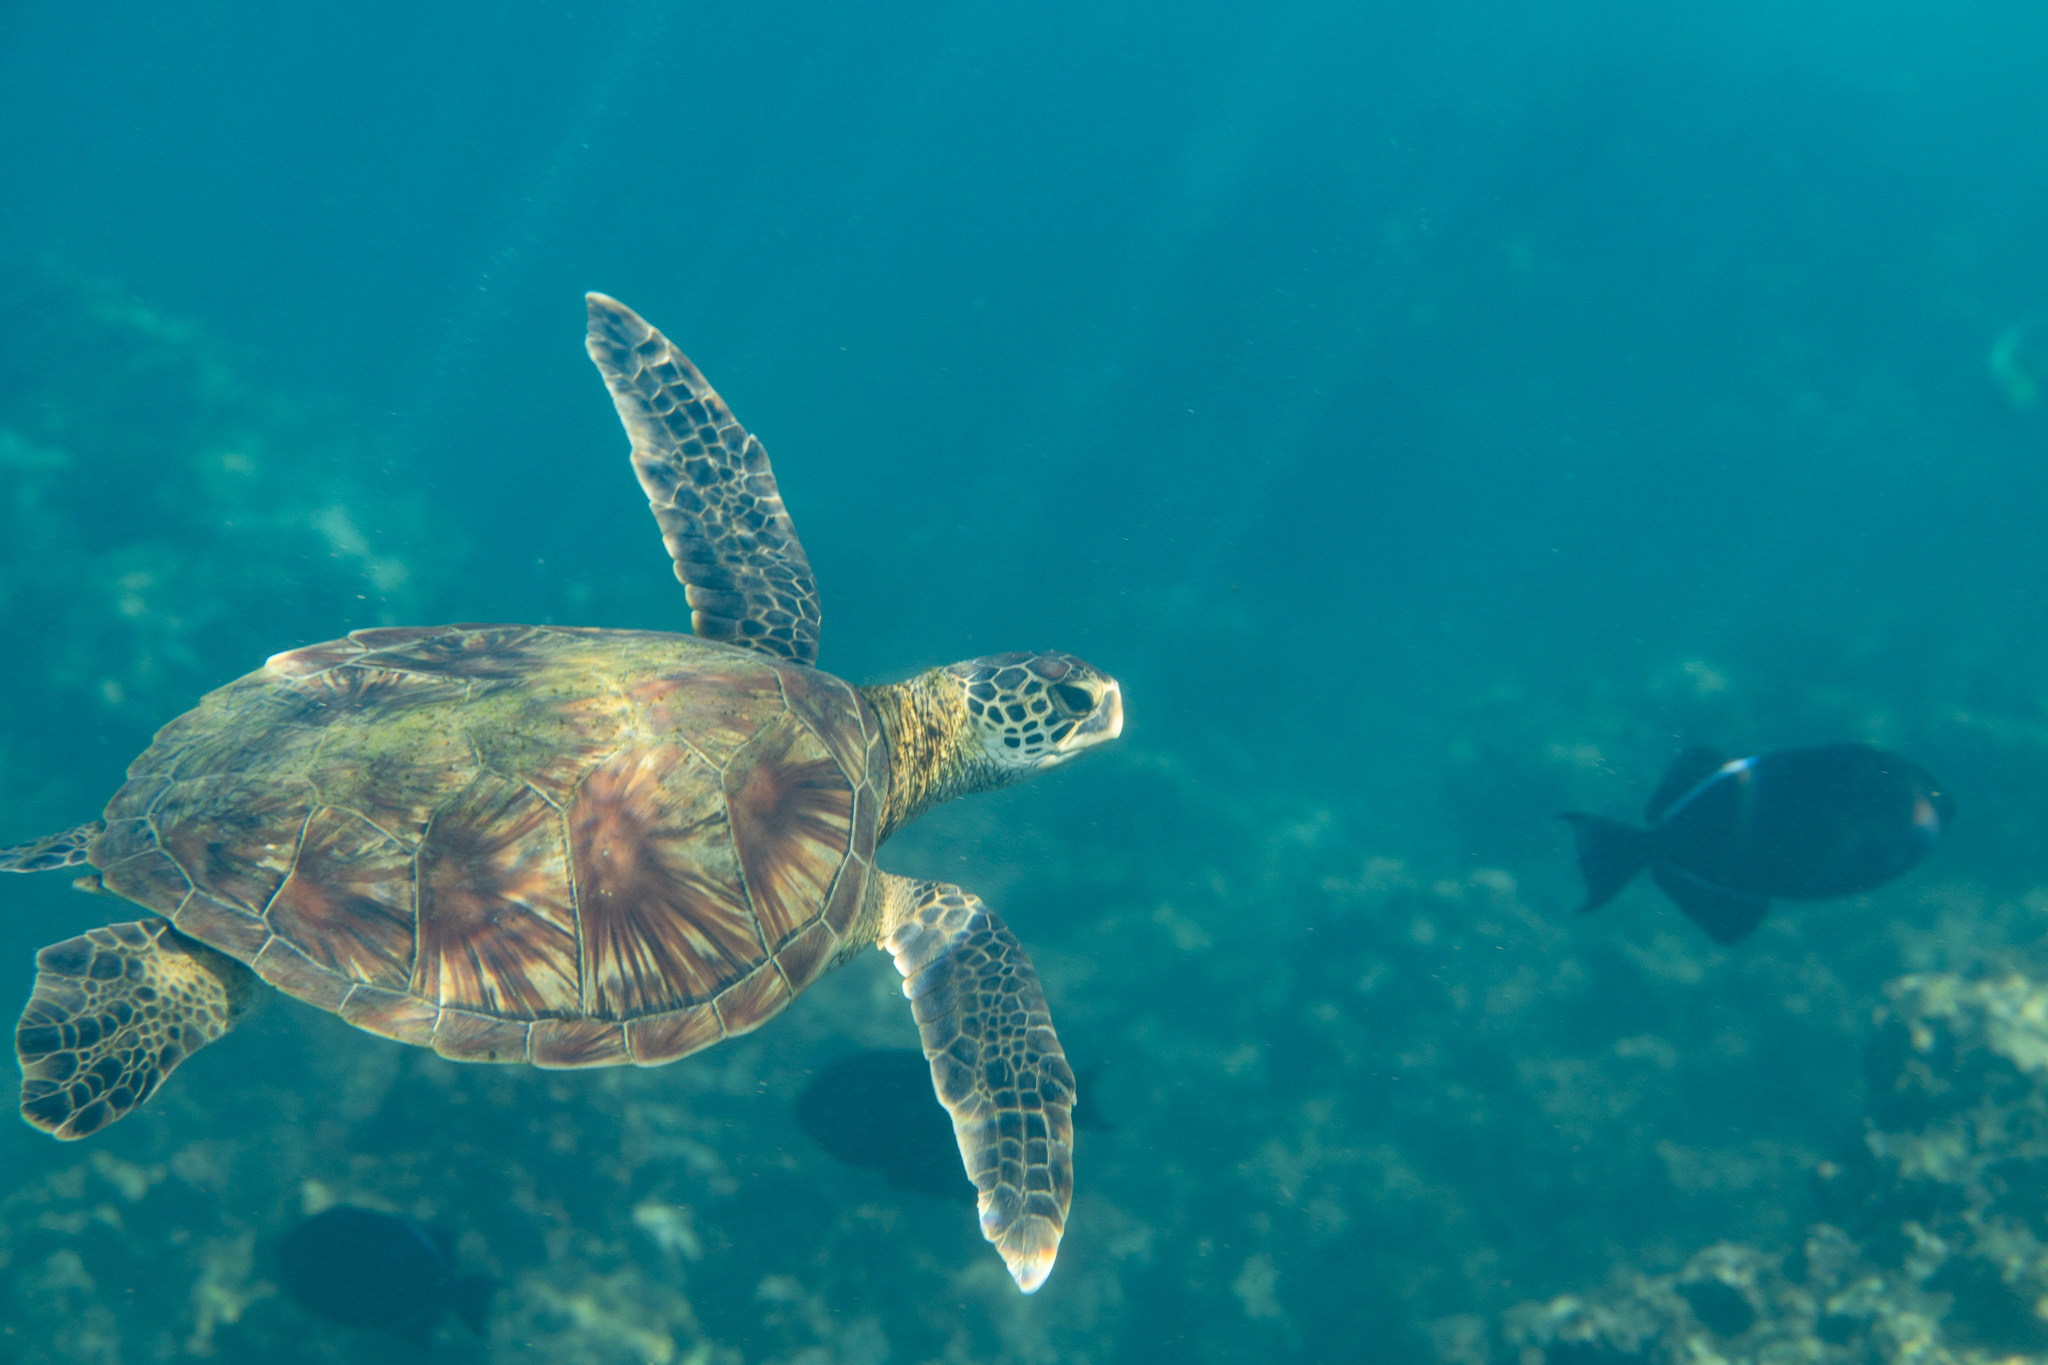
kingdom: Animalia
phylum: Chordata
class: Testudines
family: Cheloniidae
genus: Chelonia
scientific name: Chelonia mydas
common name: Green turtle
